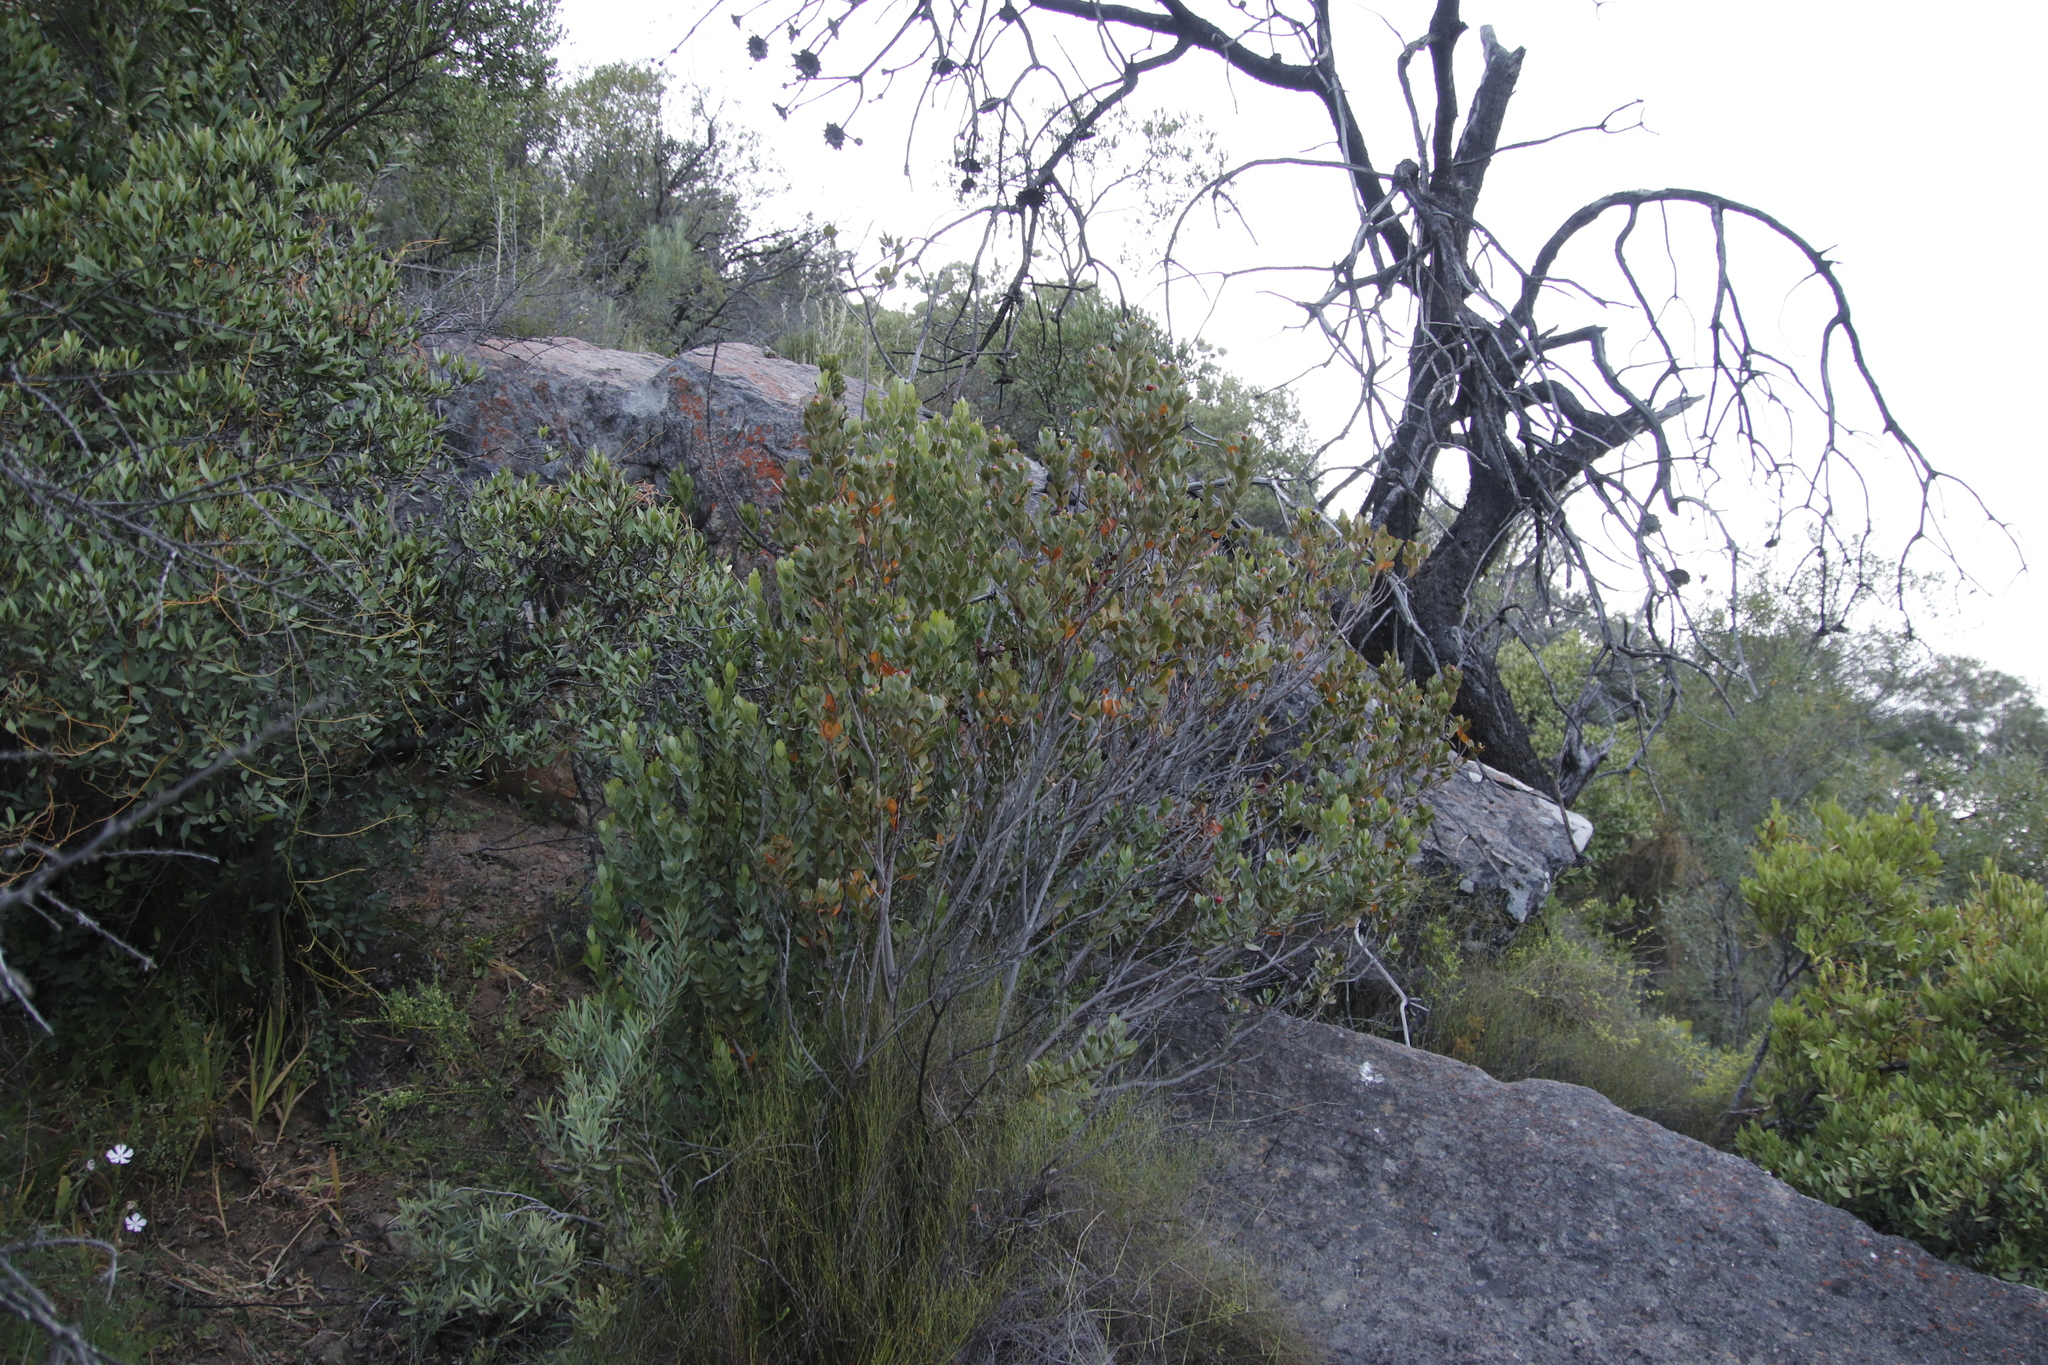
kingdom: Plantae
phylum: Tracheophyta
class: Magnoliopsida
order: Santalales
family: Santalaceae
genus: Osyris
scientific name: Osyris compressa
